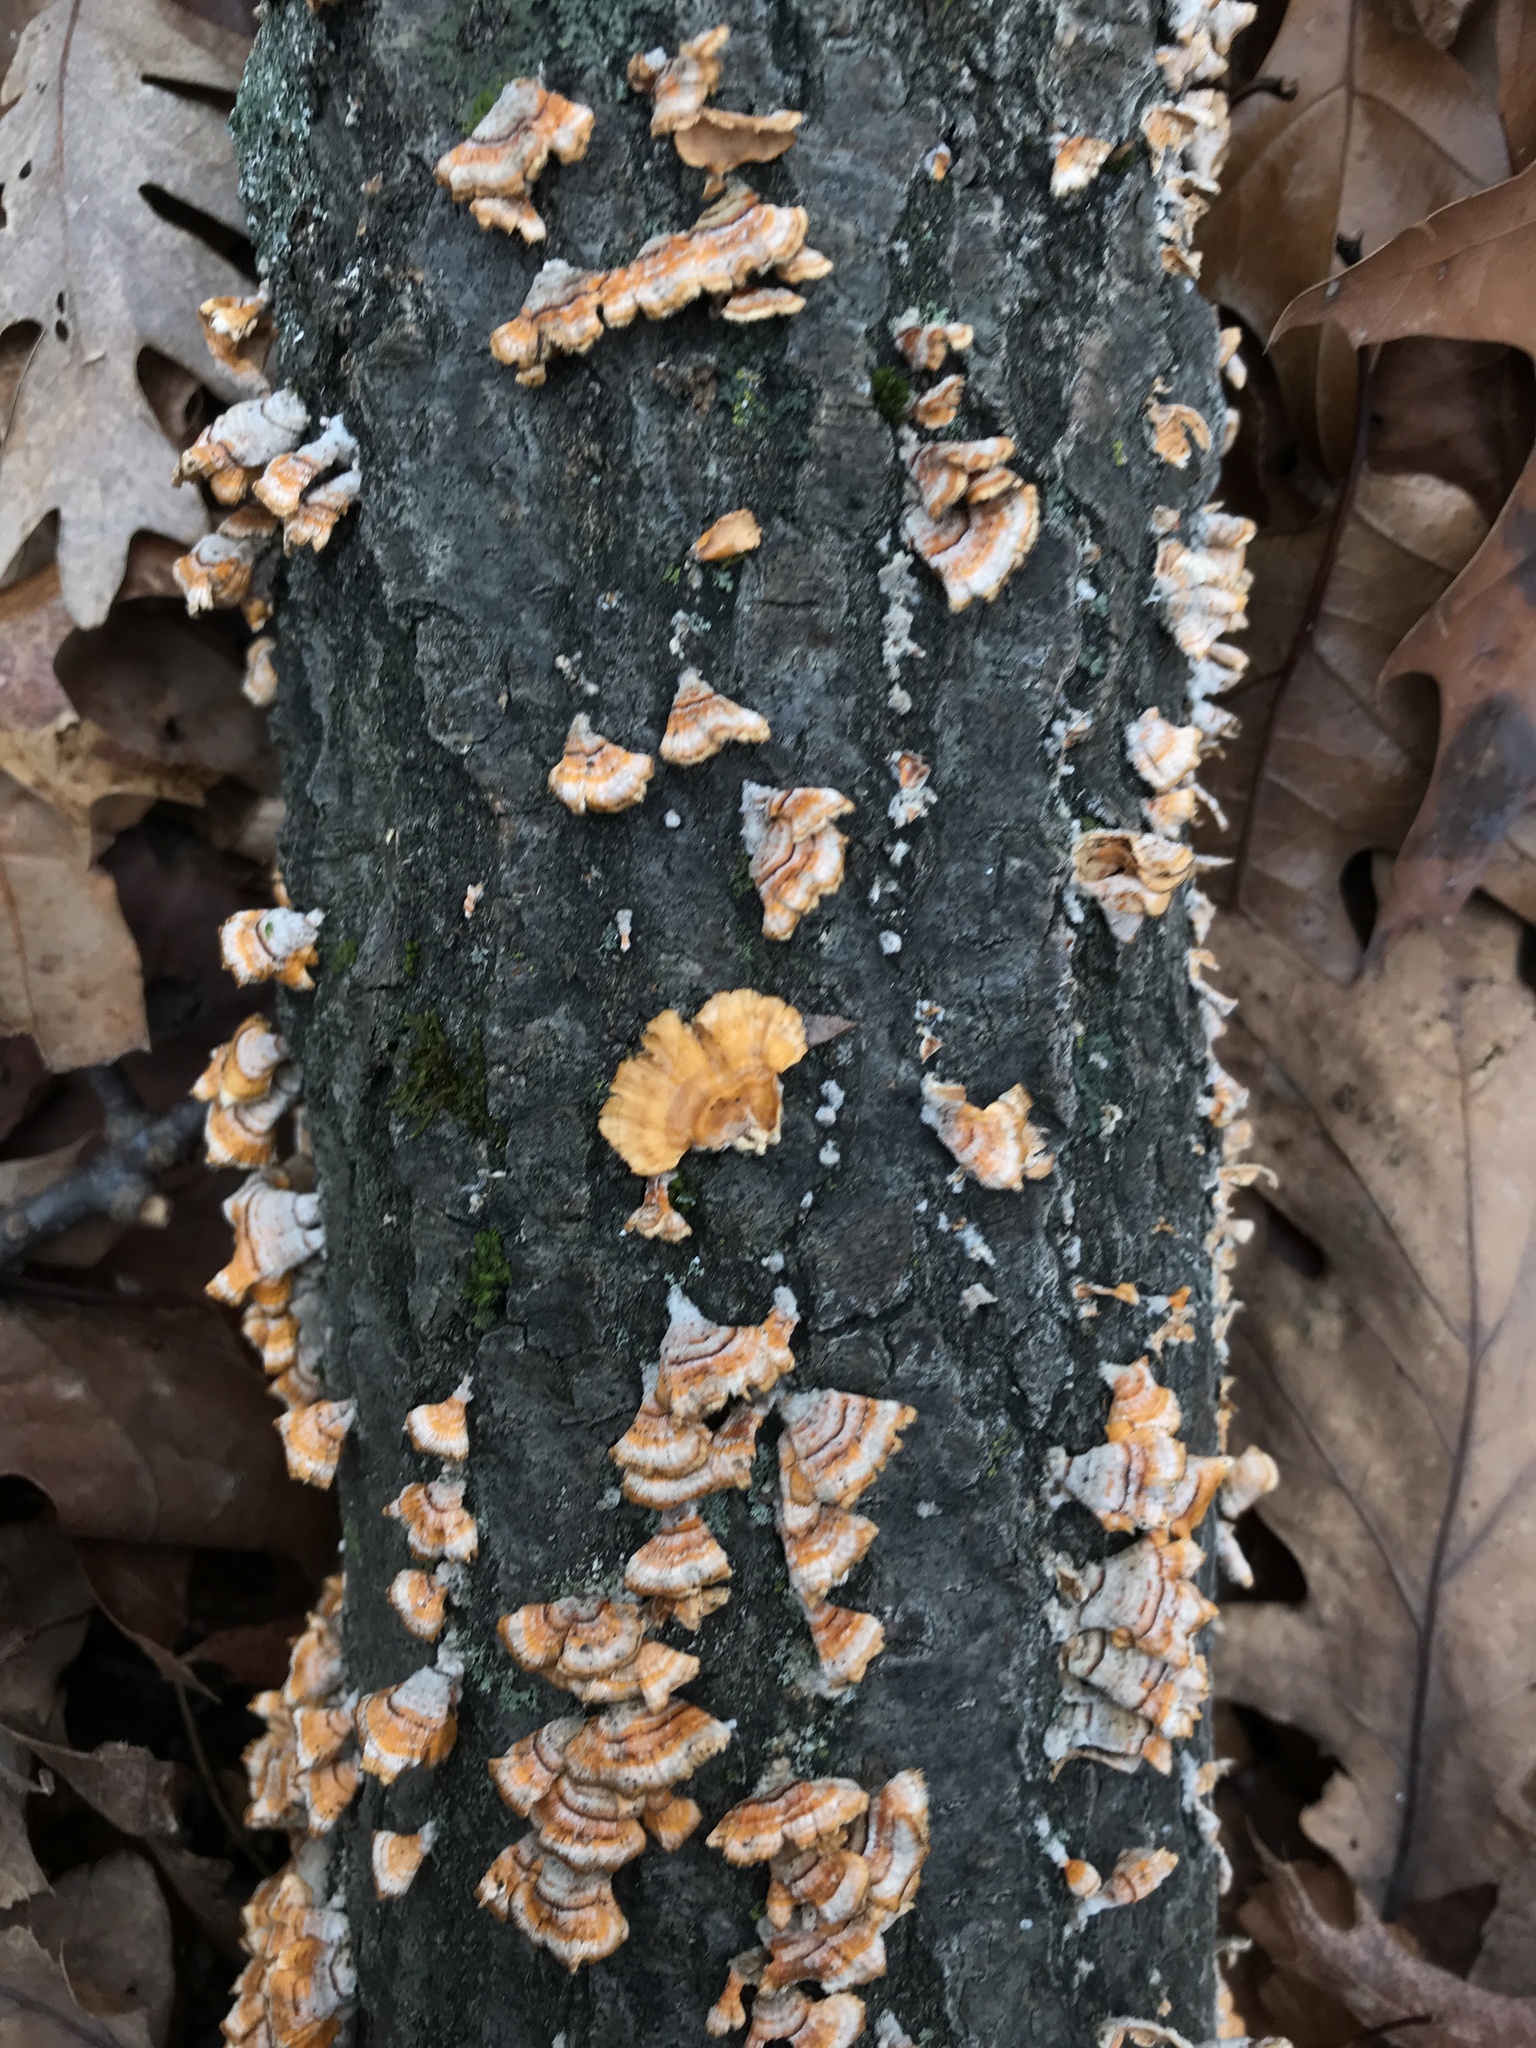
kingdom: Fungi
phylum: Basidiomycota
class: Agaricomycetes
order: Russulales
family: Stereaceae
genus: Stereum
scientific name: Stereum complicatum
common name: Crowded parchment
